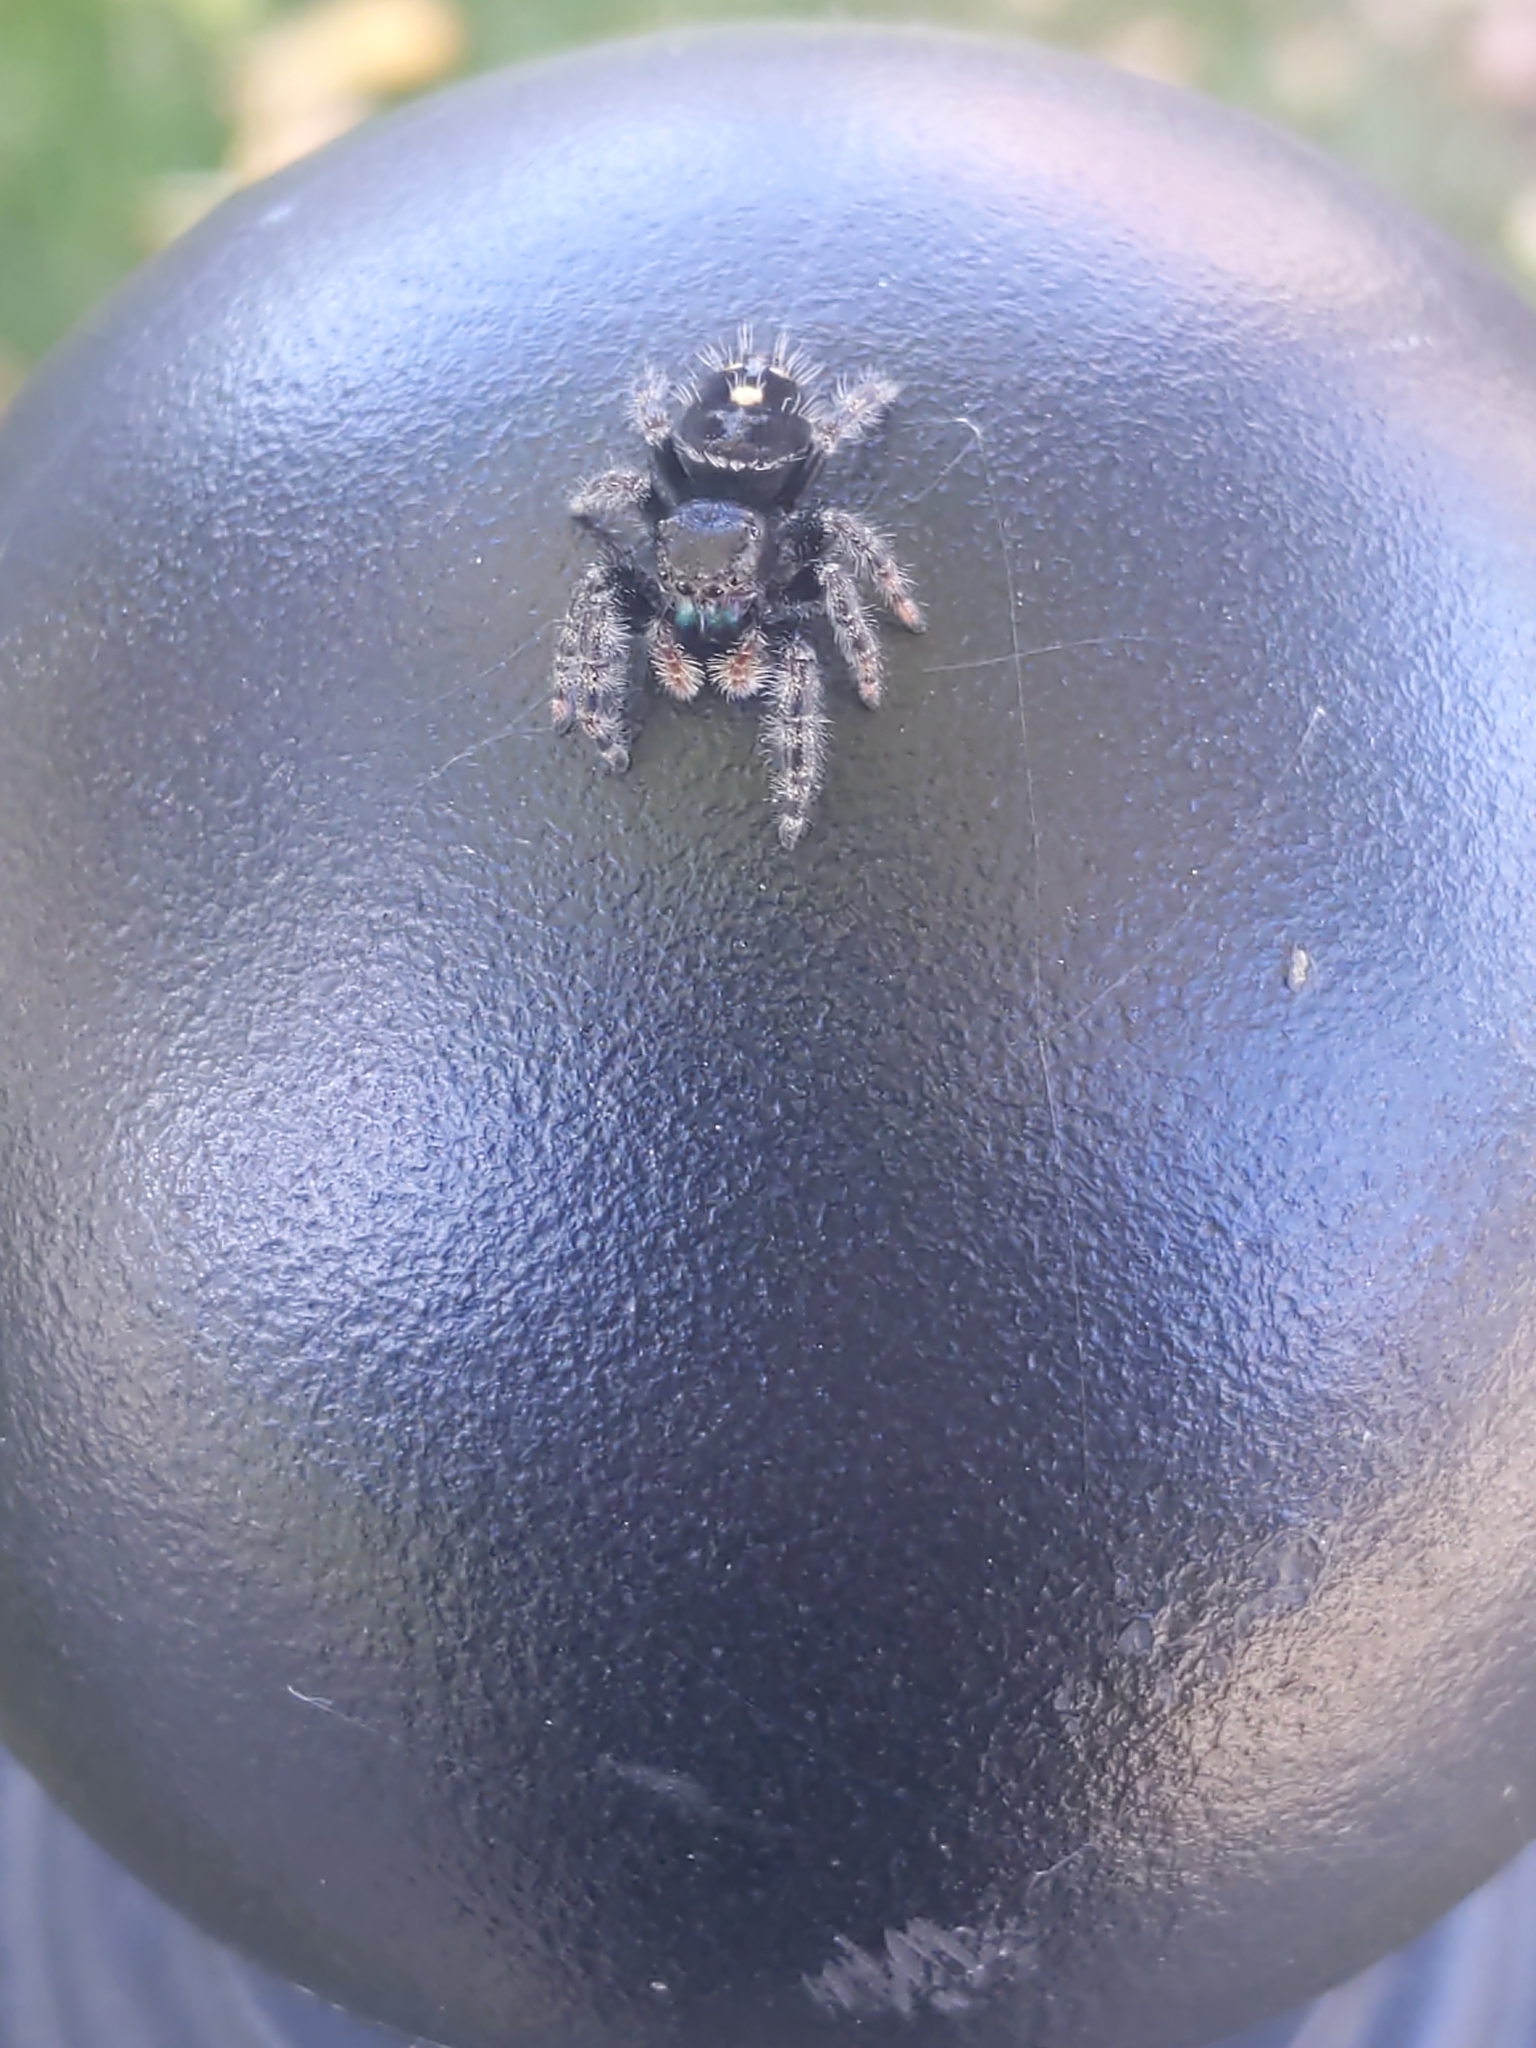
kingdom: Animalia
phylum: Arthropoda
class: Arachnida
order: Araneae
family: Salticidae
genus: Phidippus
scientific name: Phidippus audax
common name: Bold jumper
